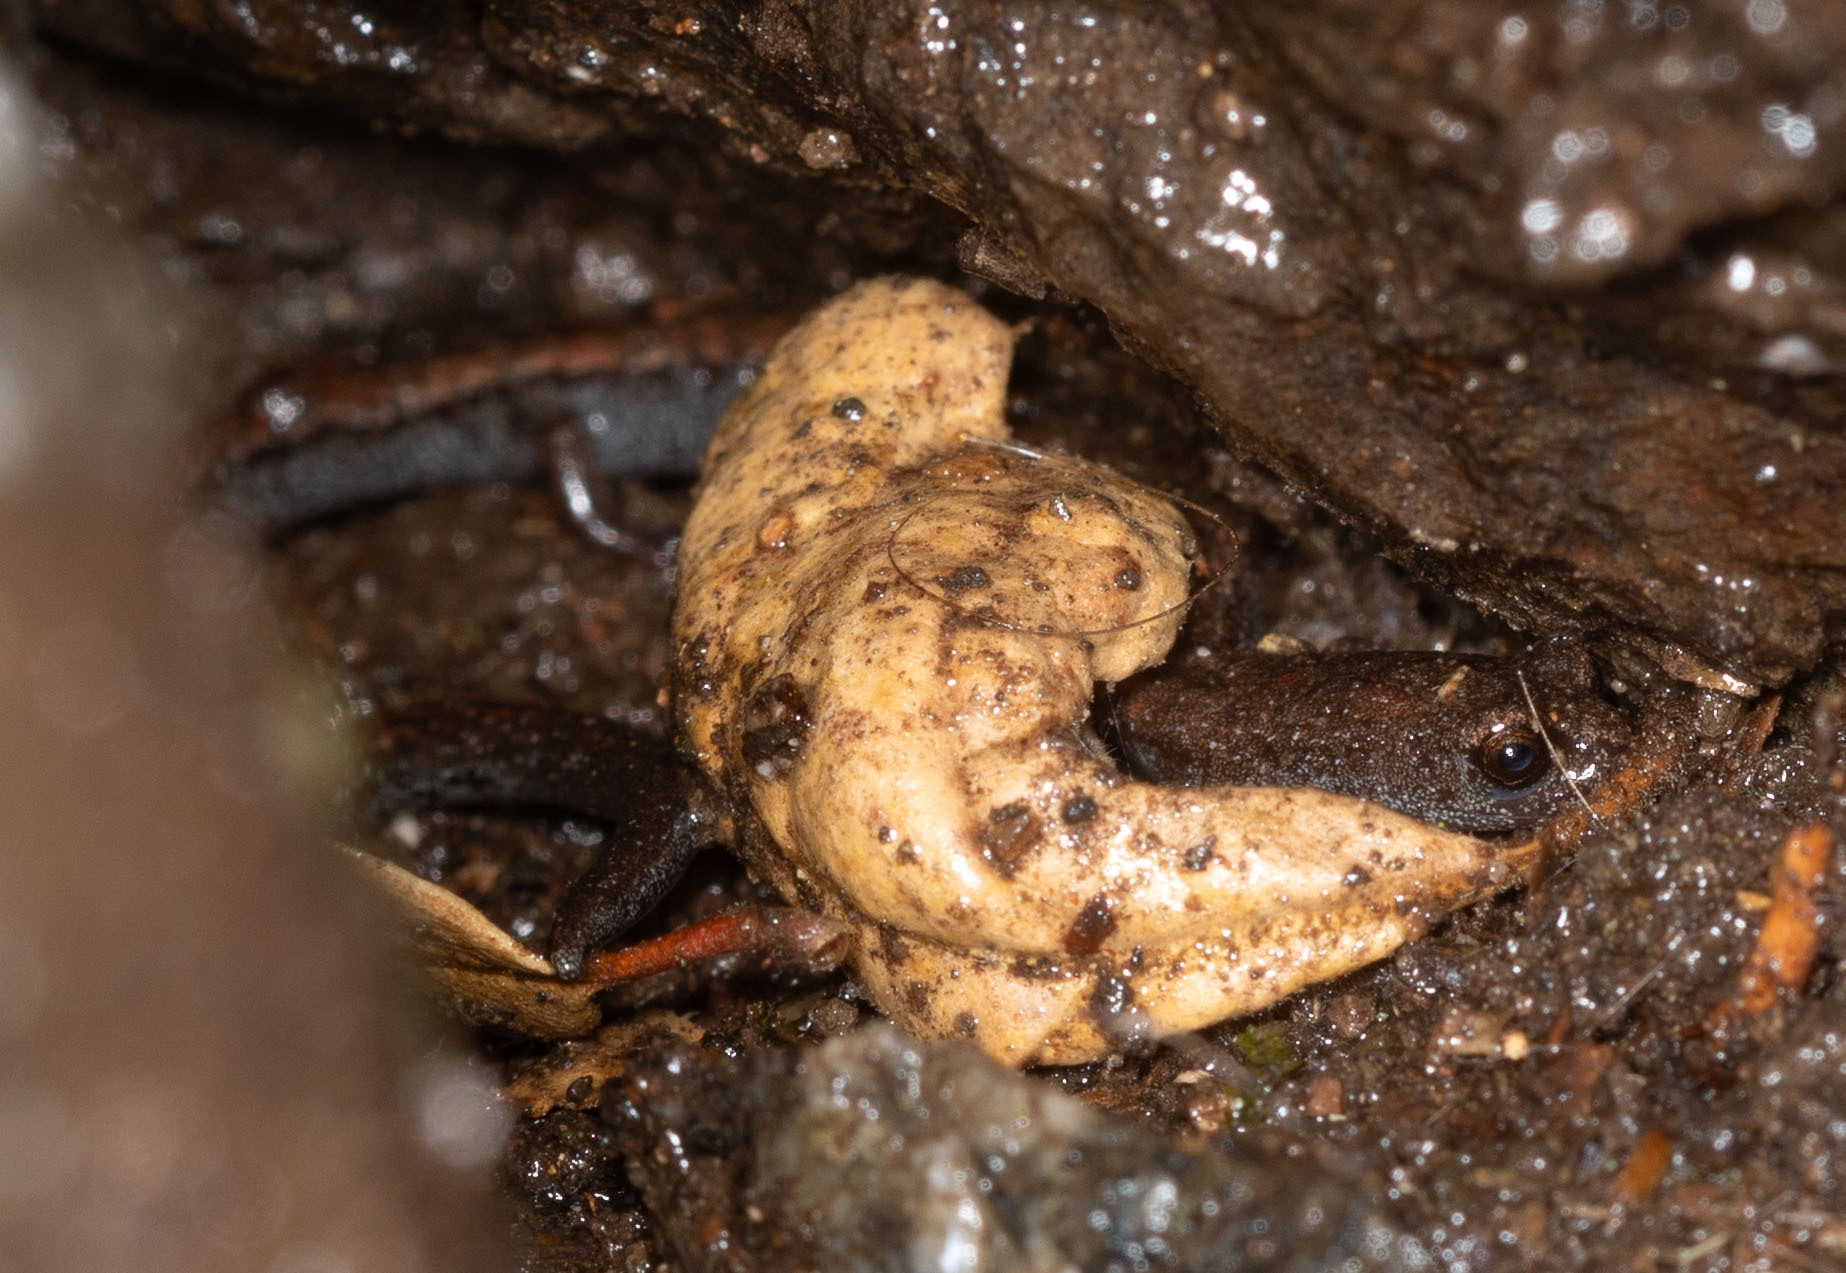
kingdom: Animalia
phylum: Chordata
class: Amphibia
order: Caudata
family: Plethodontidae
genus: Batrachoseps
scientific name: Batrachoseps gavilanensis
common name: Gabilan mountains slender salamander
